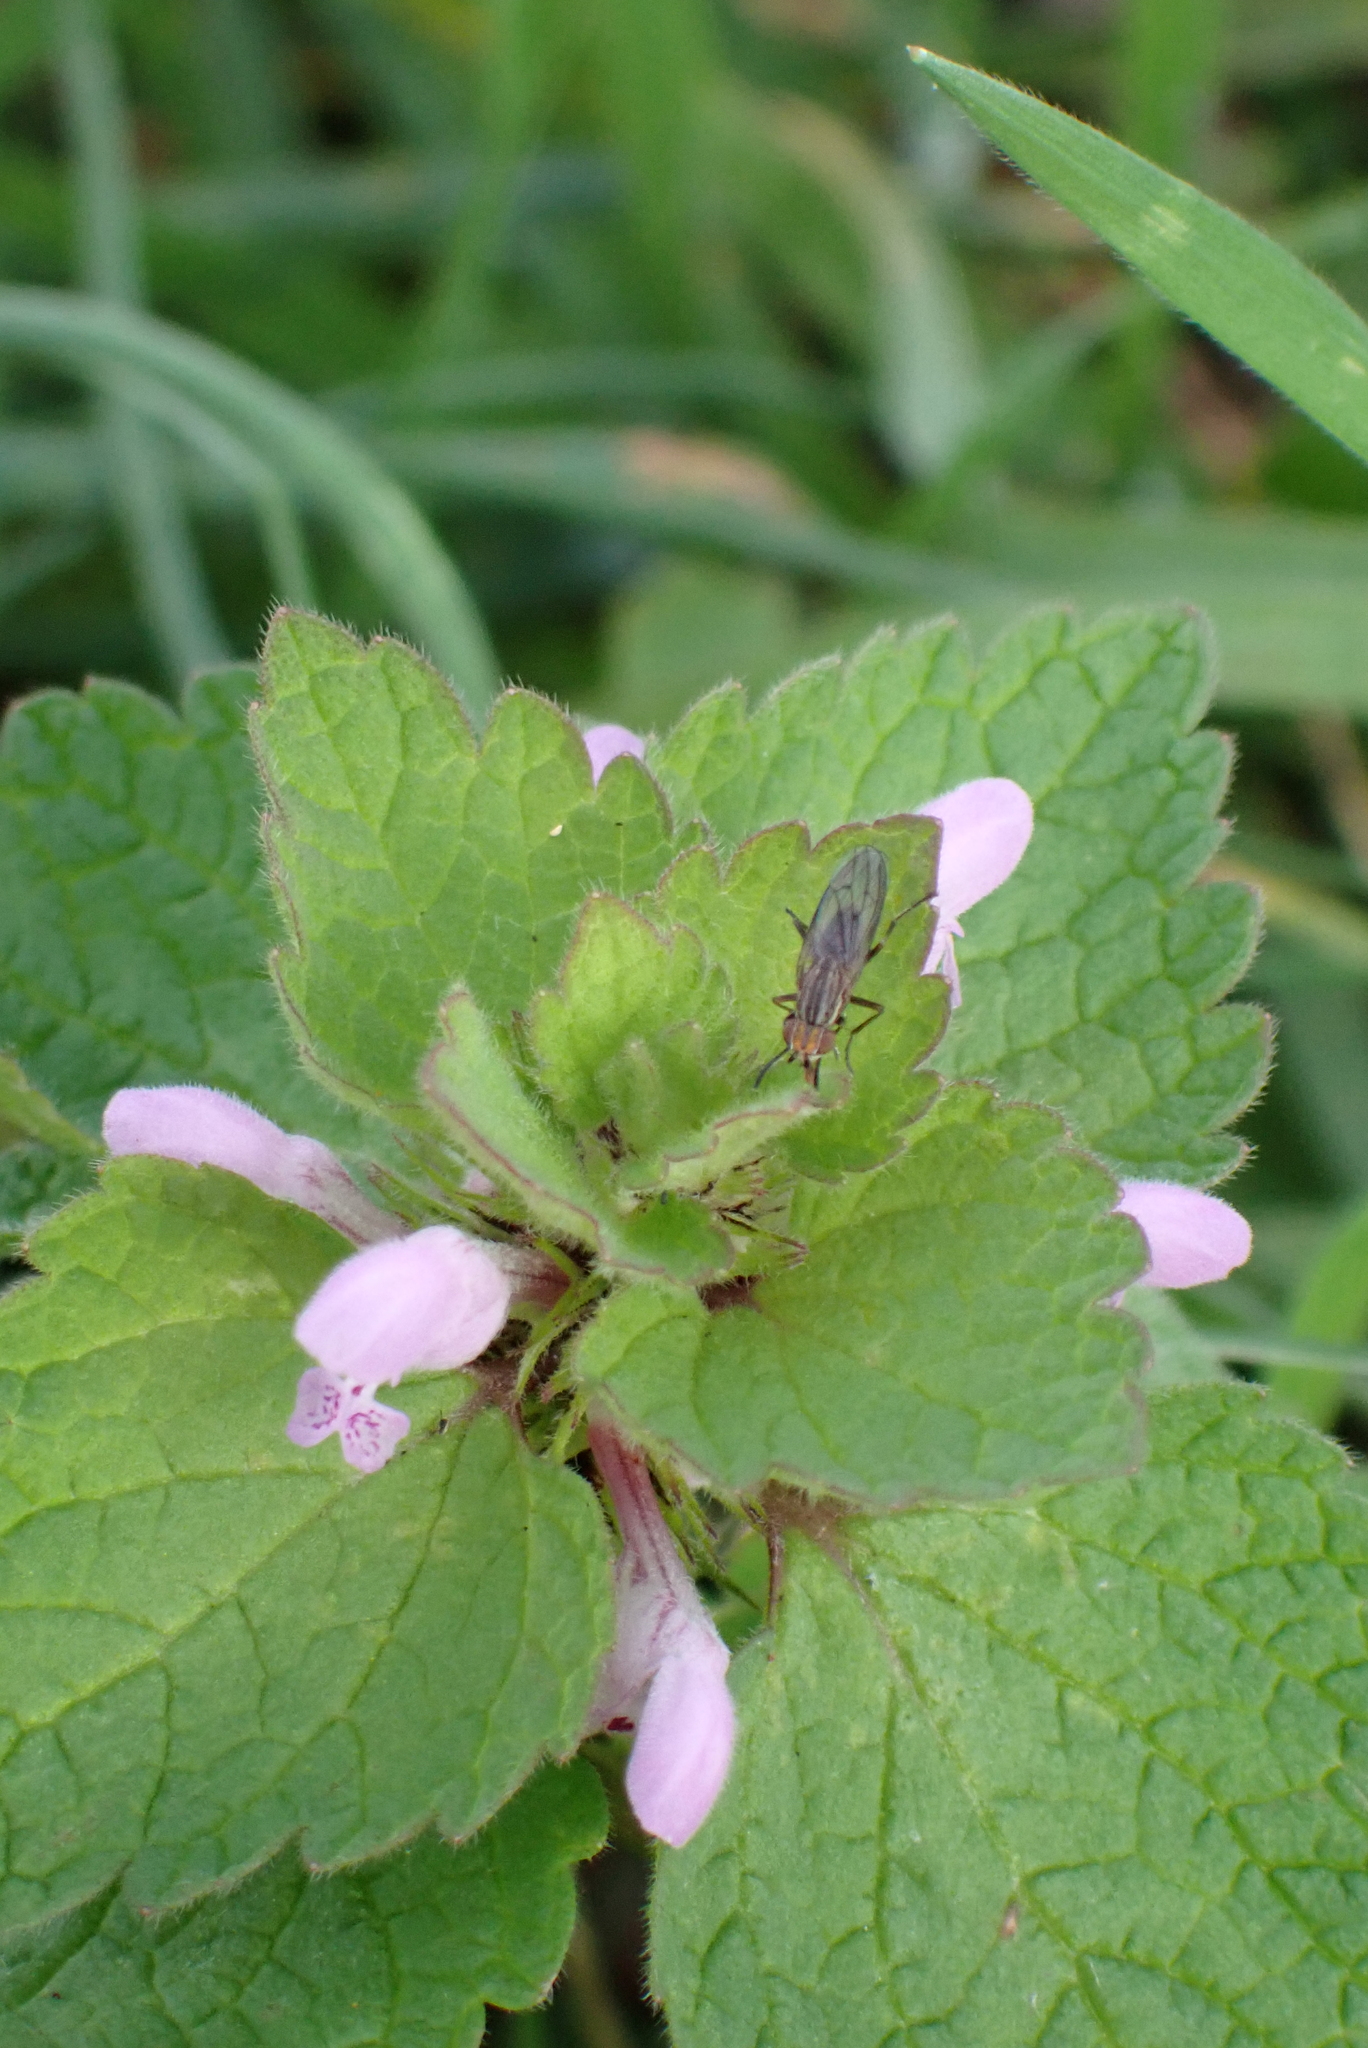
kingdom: Plantae
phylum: Tracheophyta
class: Magnoliopsida
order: Lamiales
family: Lamiaceae
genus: Lamium
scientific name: Lamium purpureum
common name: Red dead-nettle
